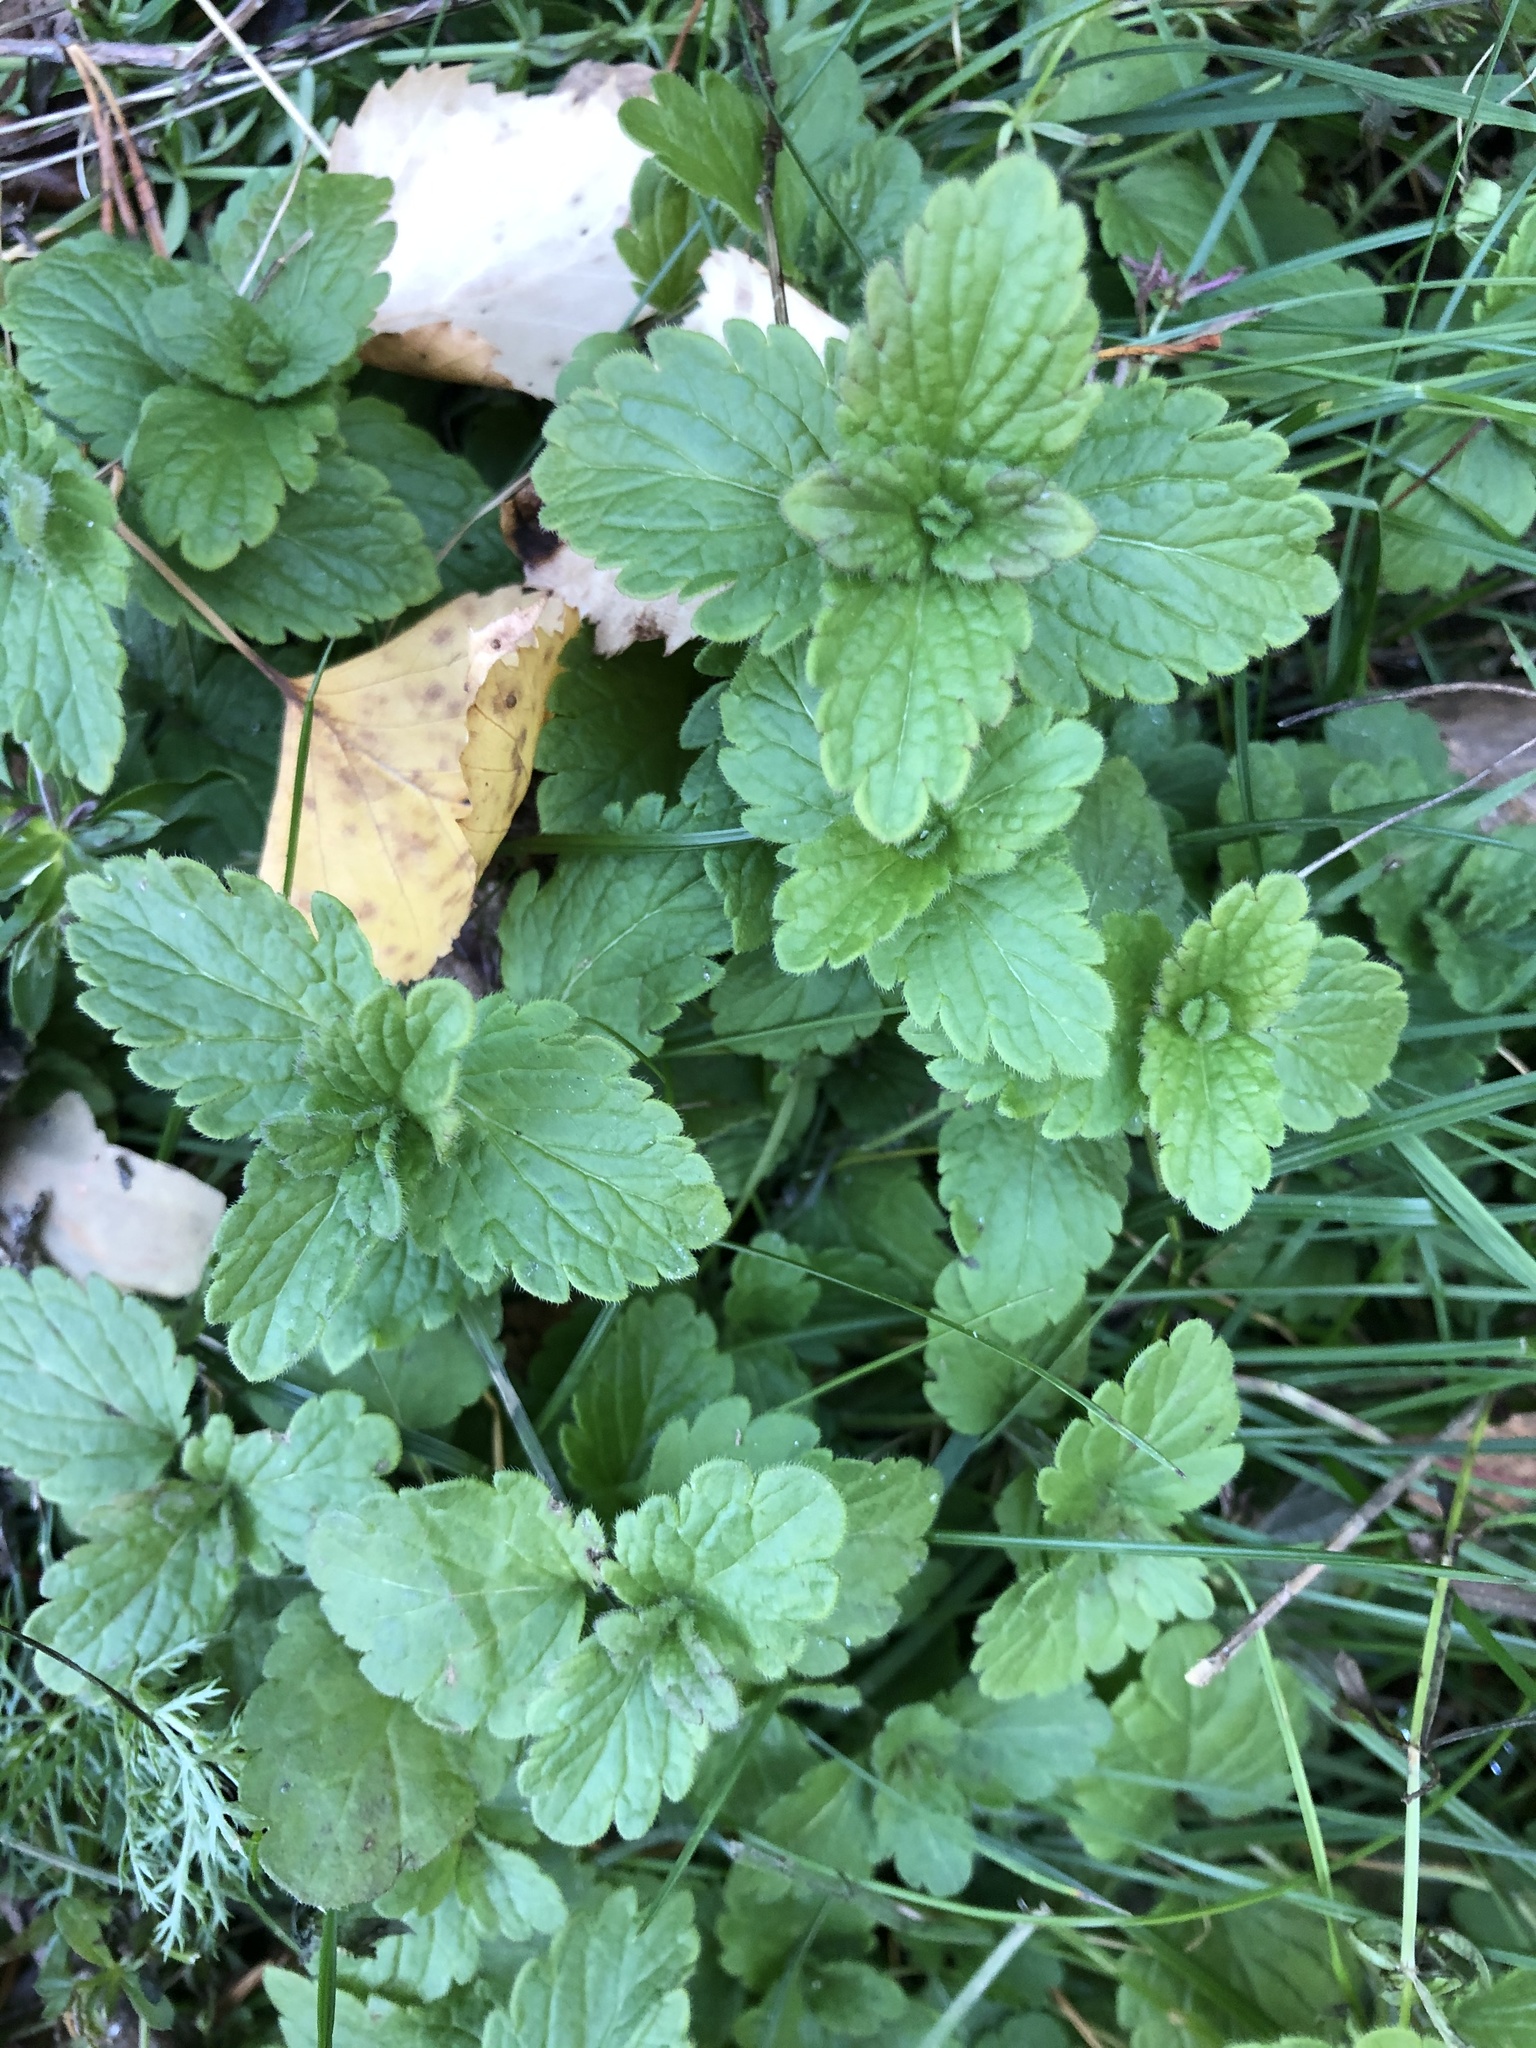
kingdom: Plantae
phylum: Tracheophyta
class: Magnoliopsida
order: Lamiales
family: Plantaginaceae
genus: Veronica
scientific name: Veronica chamaedrys
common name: Germander speedwell
